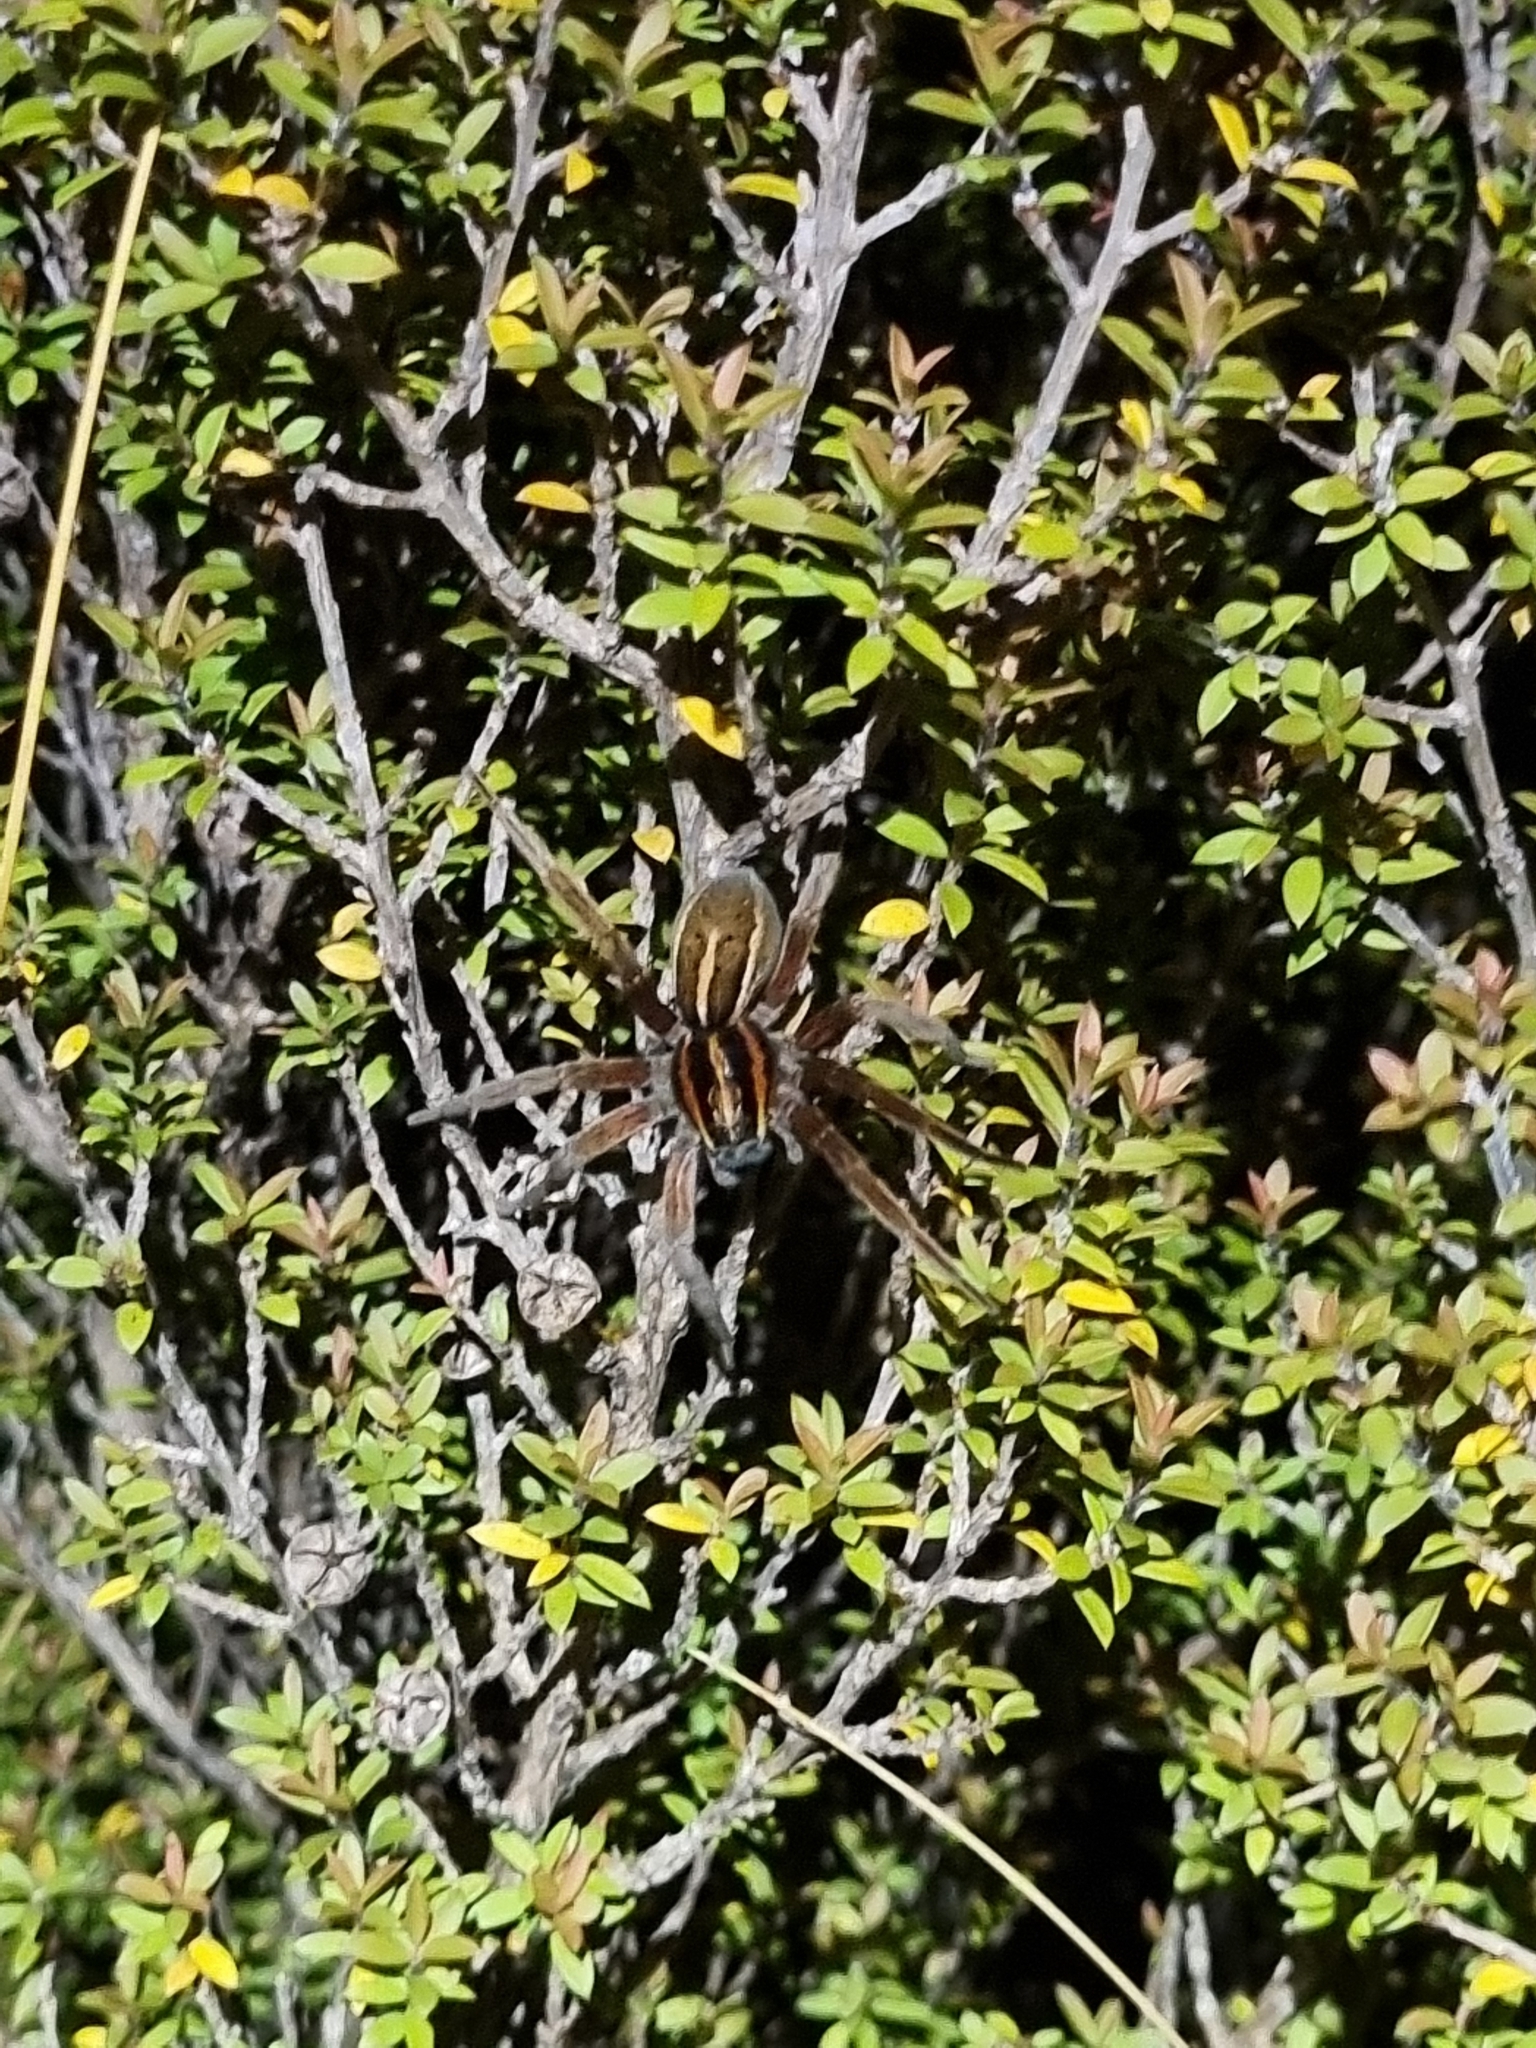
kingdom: Animalia
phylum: Arthropoda
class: Arachnida
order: Araneae
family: Pisauridae
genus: Dolomedes
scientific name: Dolomedes minor
